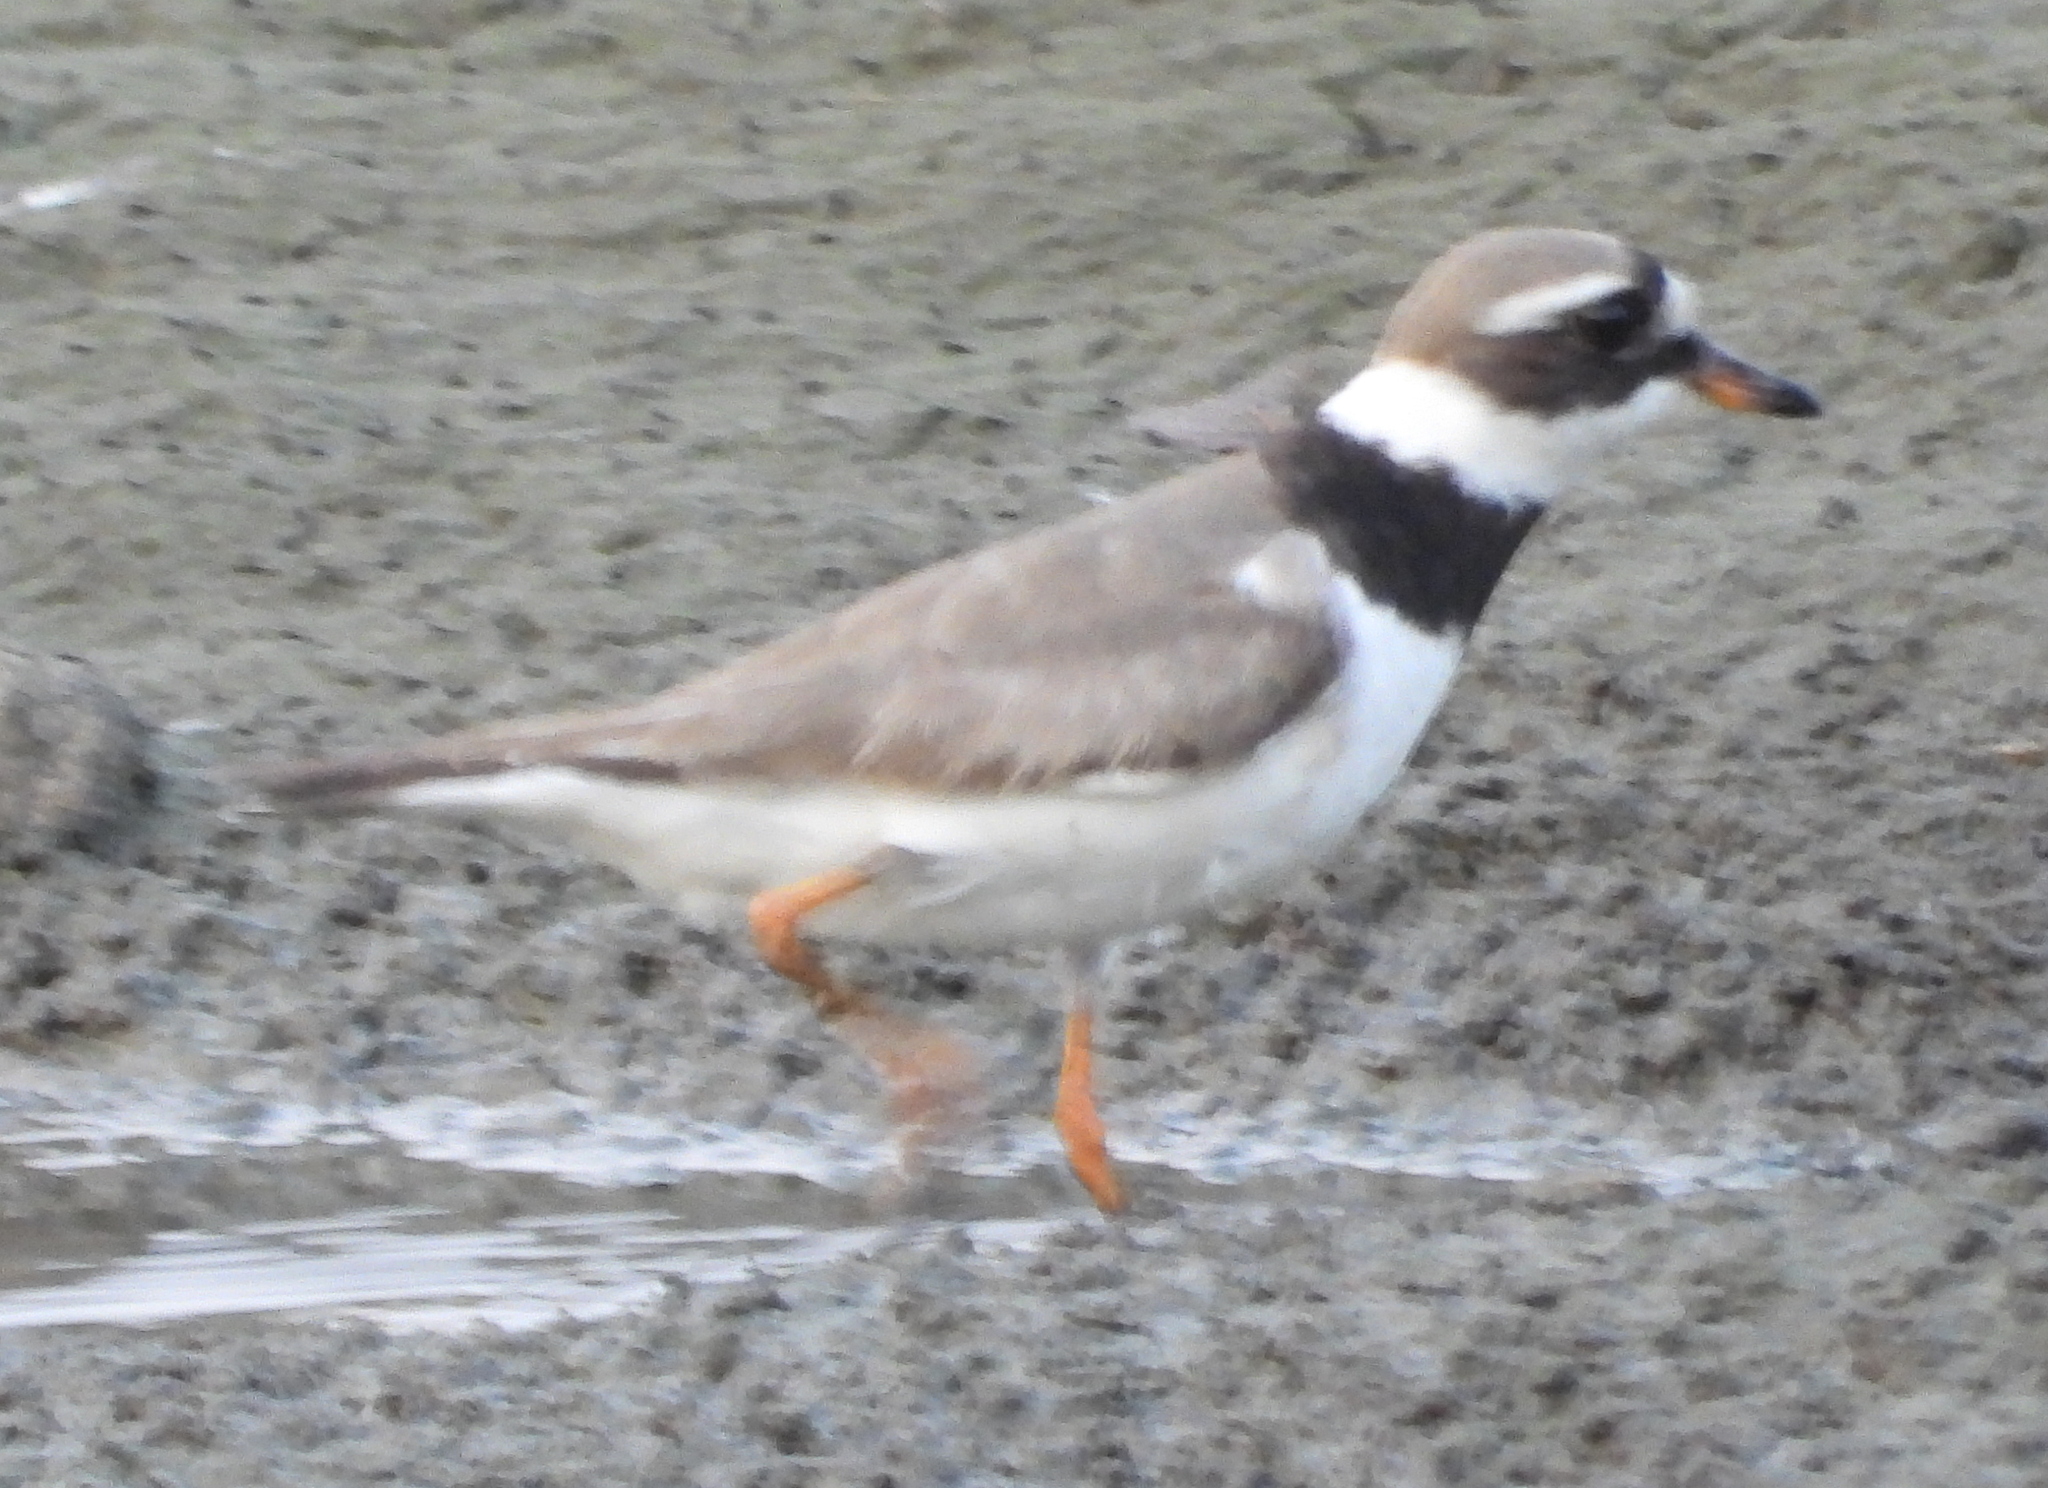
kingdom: Animalia
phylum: Chordata
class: Aves
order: Charadriiformes
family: Charadriidae
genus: Charadrius
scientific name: Charadrius hiaticula
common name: Common ringed plover
